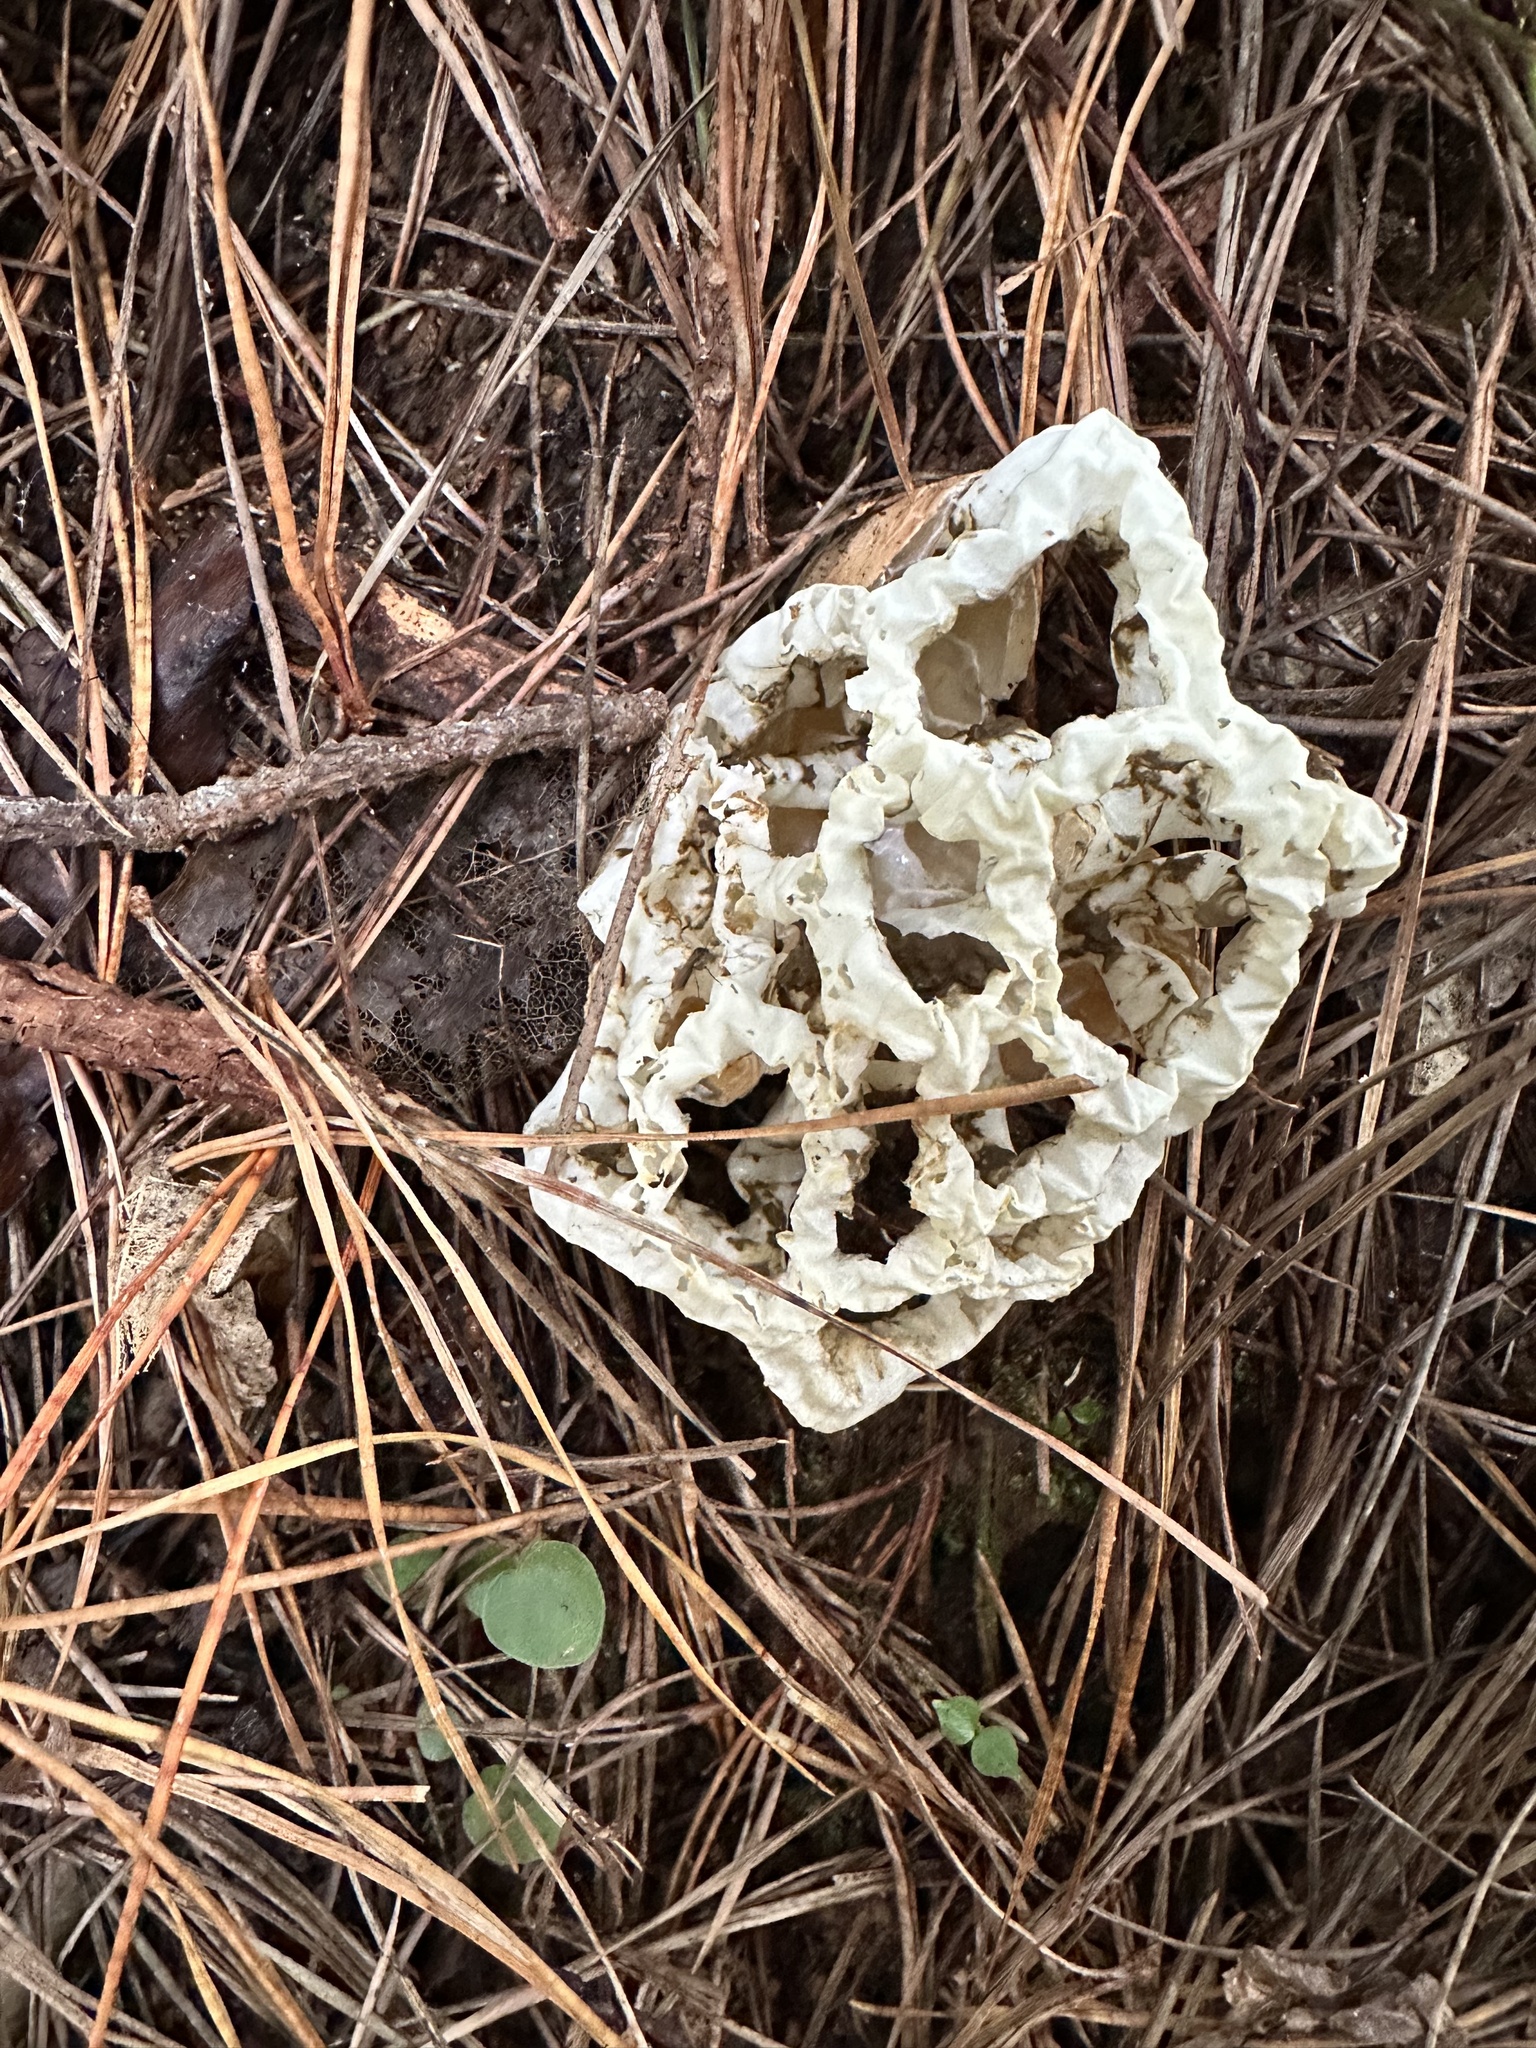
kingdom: Fungi
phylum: Basidiomycota
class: Agaricomycetes
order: Phallales
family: Phallaceae
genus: Ileodictyon
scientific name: Ileodictyon cibarium
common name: Basket fungus
